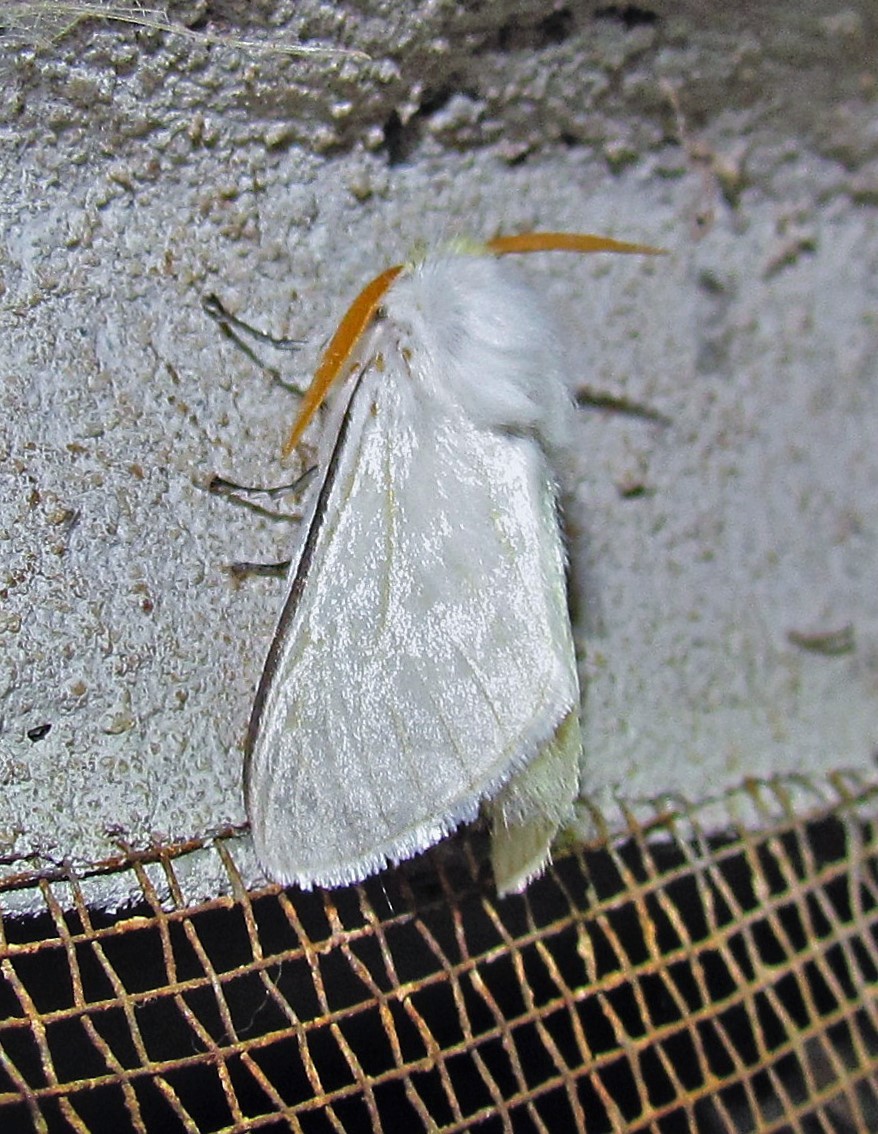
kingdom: Animalia
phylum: Arthropoda
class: Insecta
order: Lepidoptera
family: Megalopygidae
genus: Norape
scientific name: Norape beggoides
